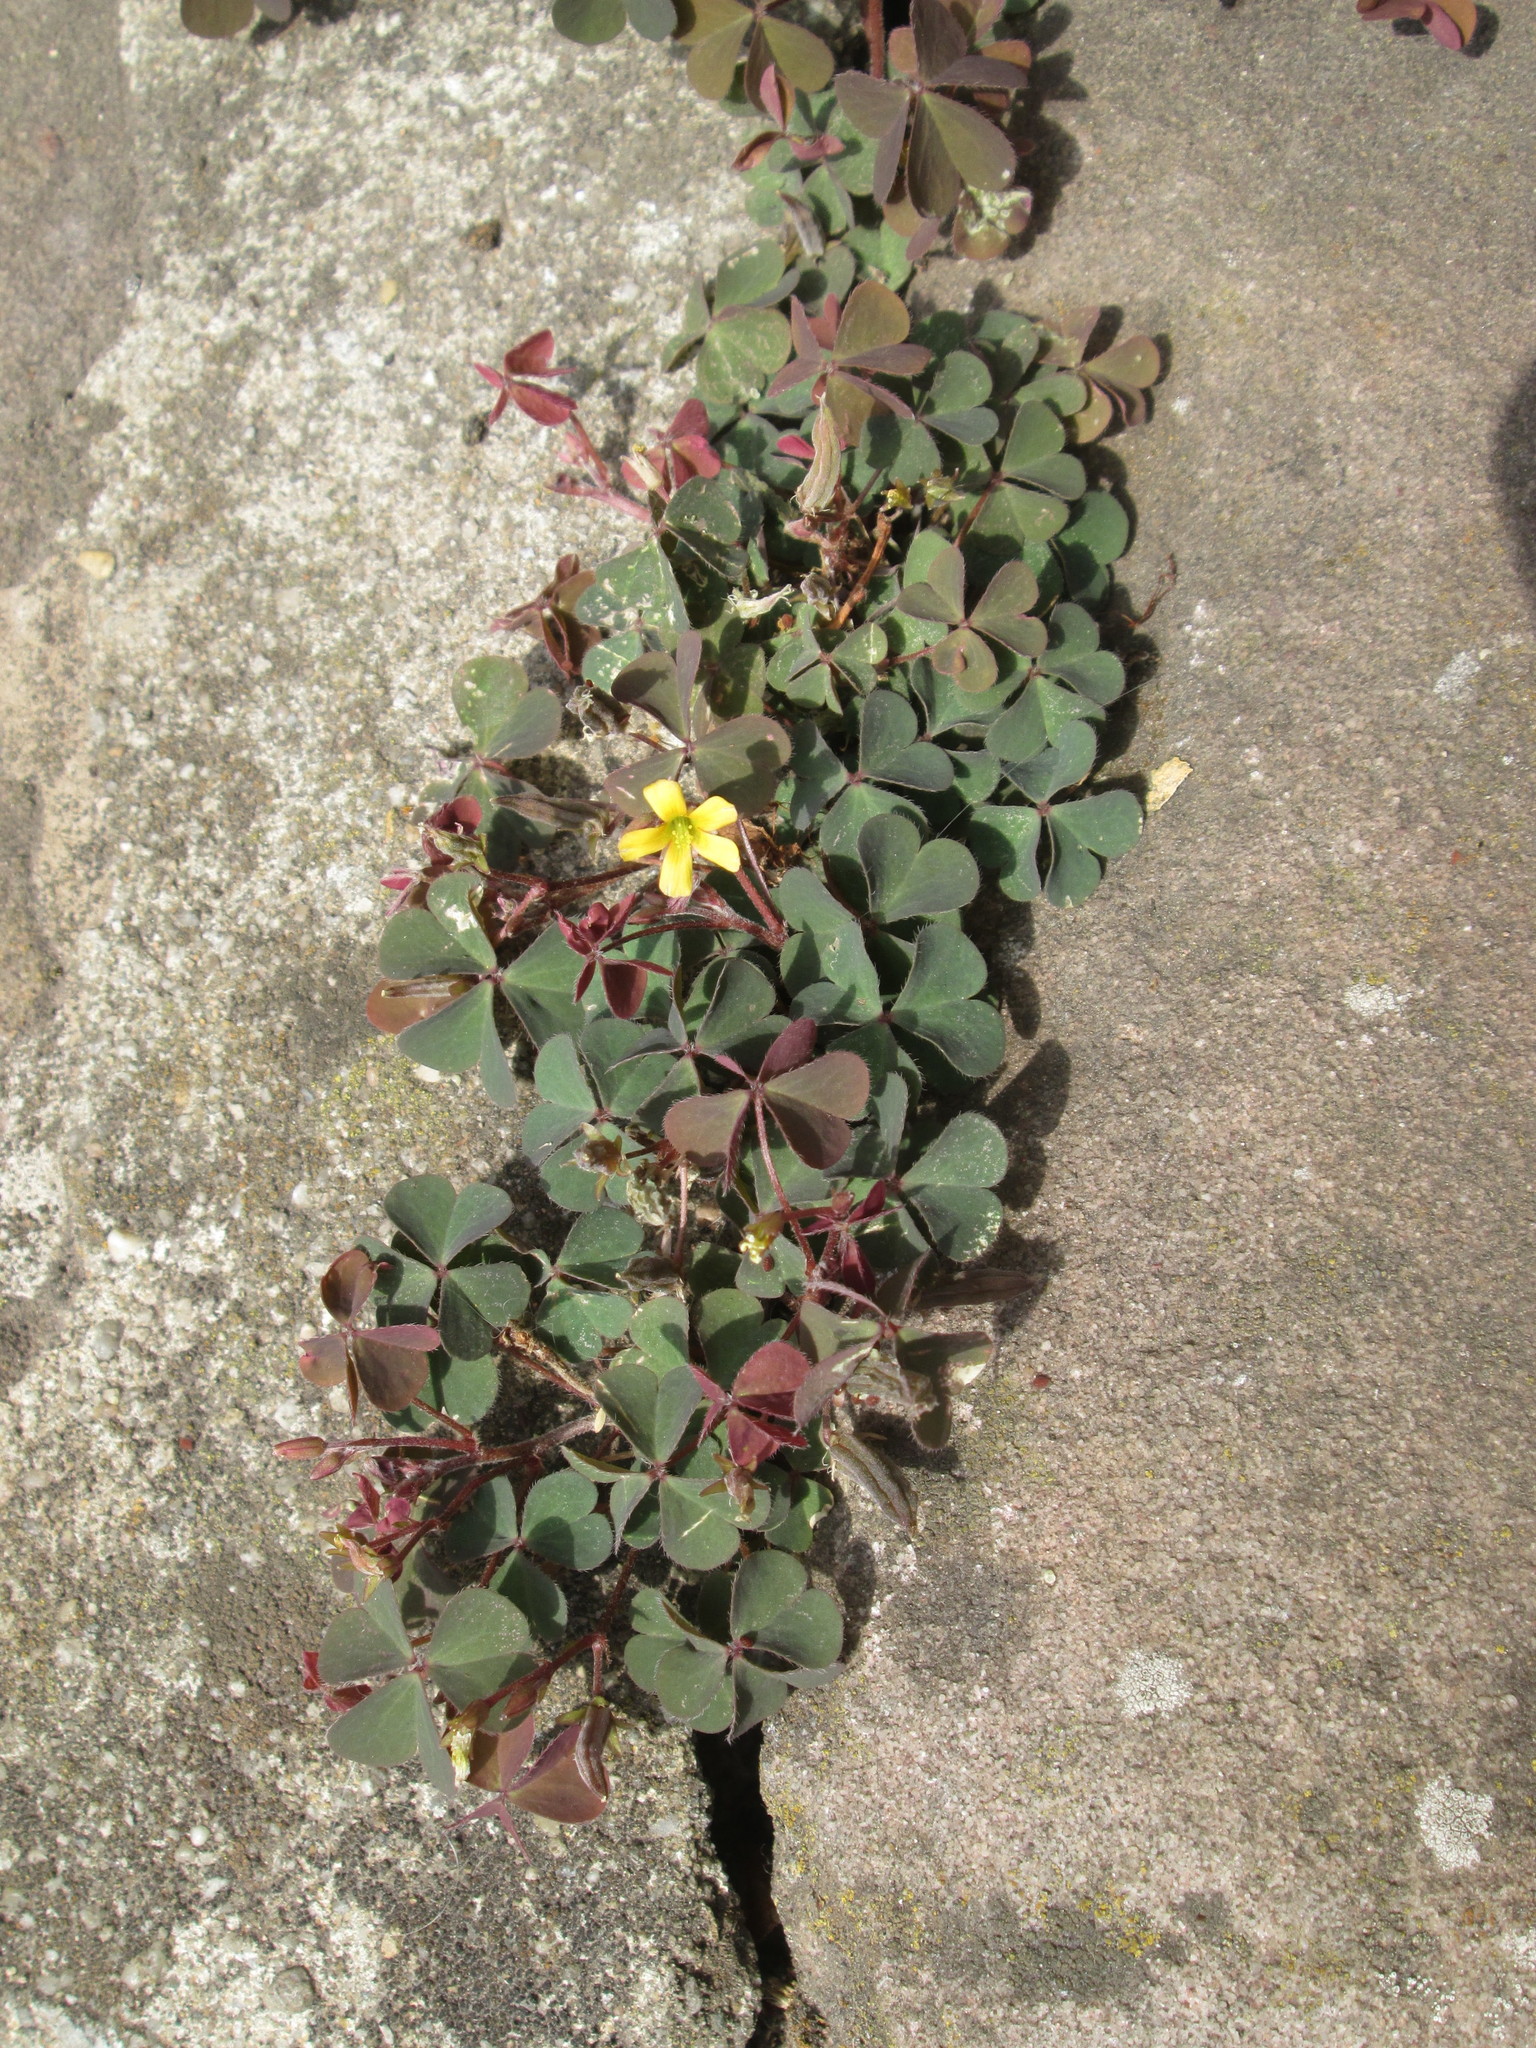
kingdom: Plantae
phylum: Tracheophyta
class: Magnoliopsida
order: Oxalidales
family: Oxalidaceae
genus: Oxalis
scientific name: Oxalis corniculata
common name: Procumbent yellow-sorrel
